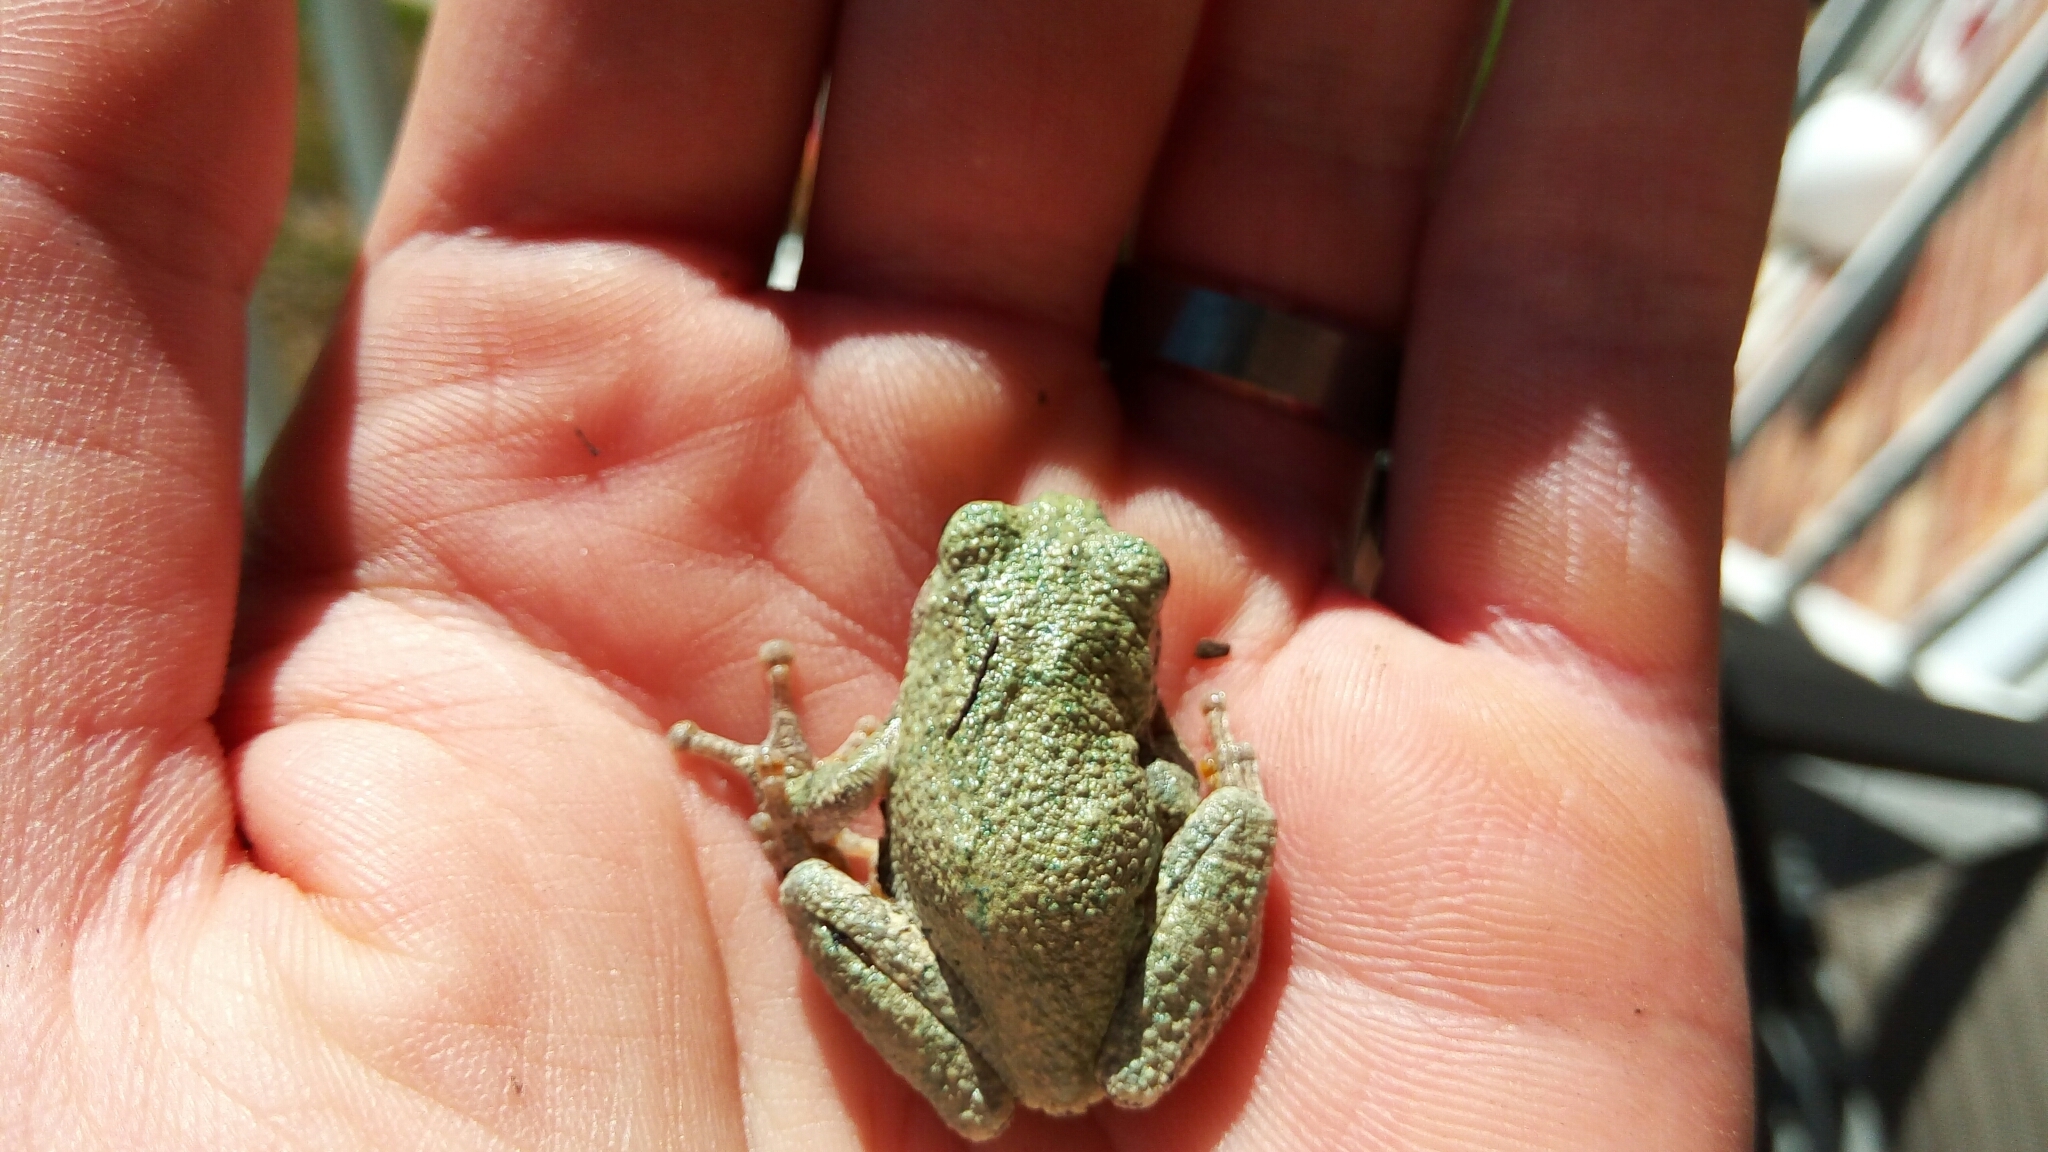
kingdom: Animalia
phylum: Chordata
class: Amphibia
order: Anura
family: Hylidae
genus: Hyla
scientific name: Hyla
